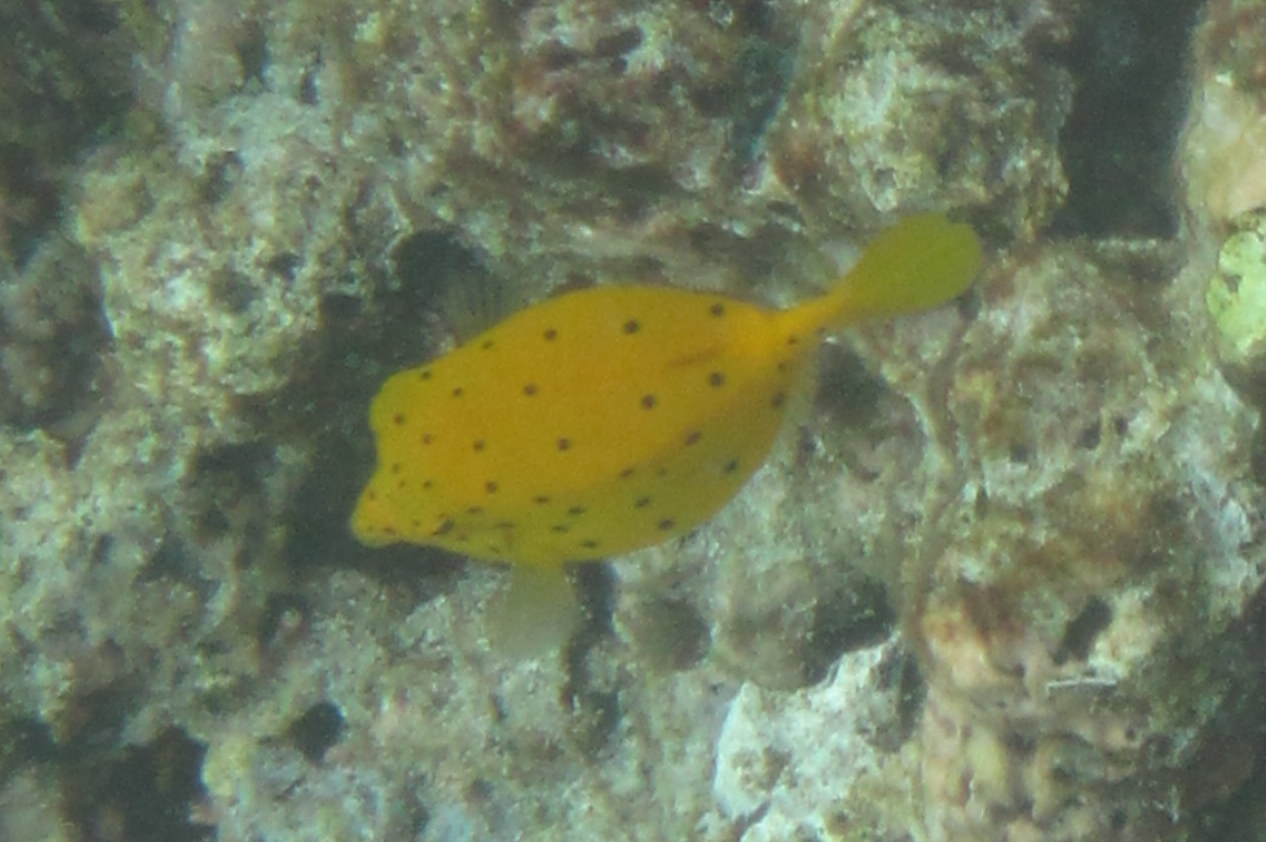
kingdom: Animalia
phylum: Chordata
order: Tetraodontiformes
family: Ostraciidae
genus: Ostracion
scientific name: Ostracion cubicus
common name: Cube trunkfish
